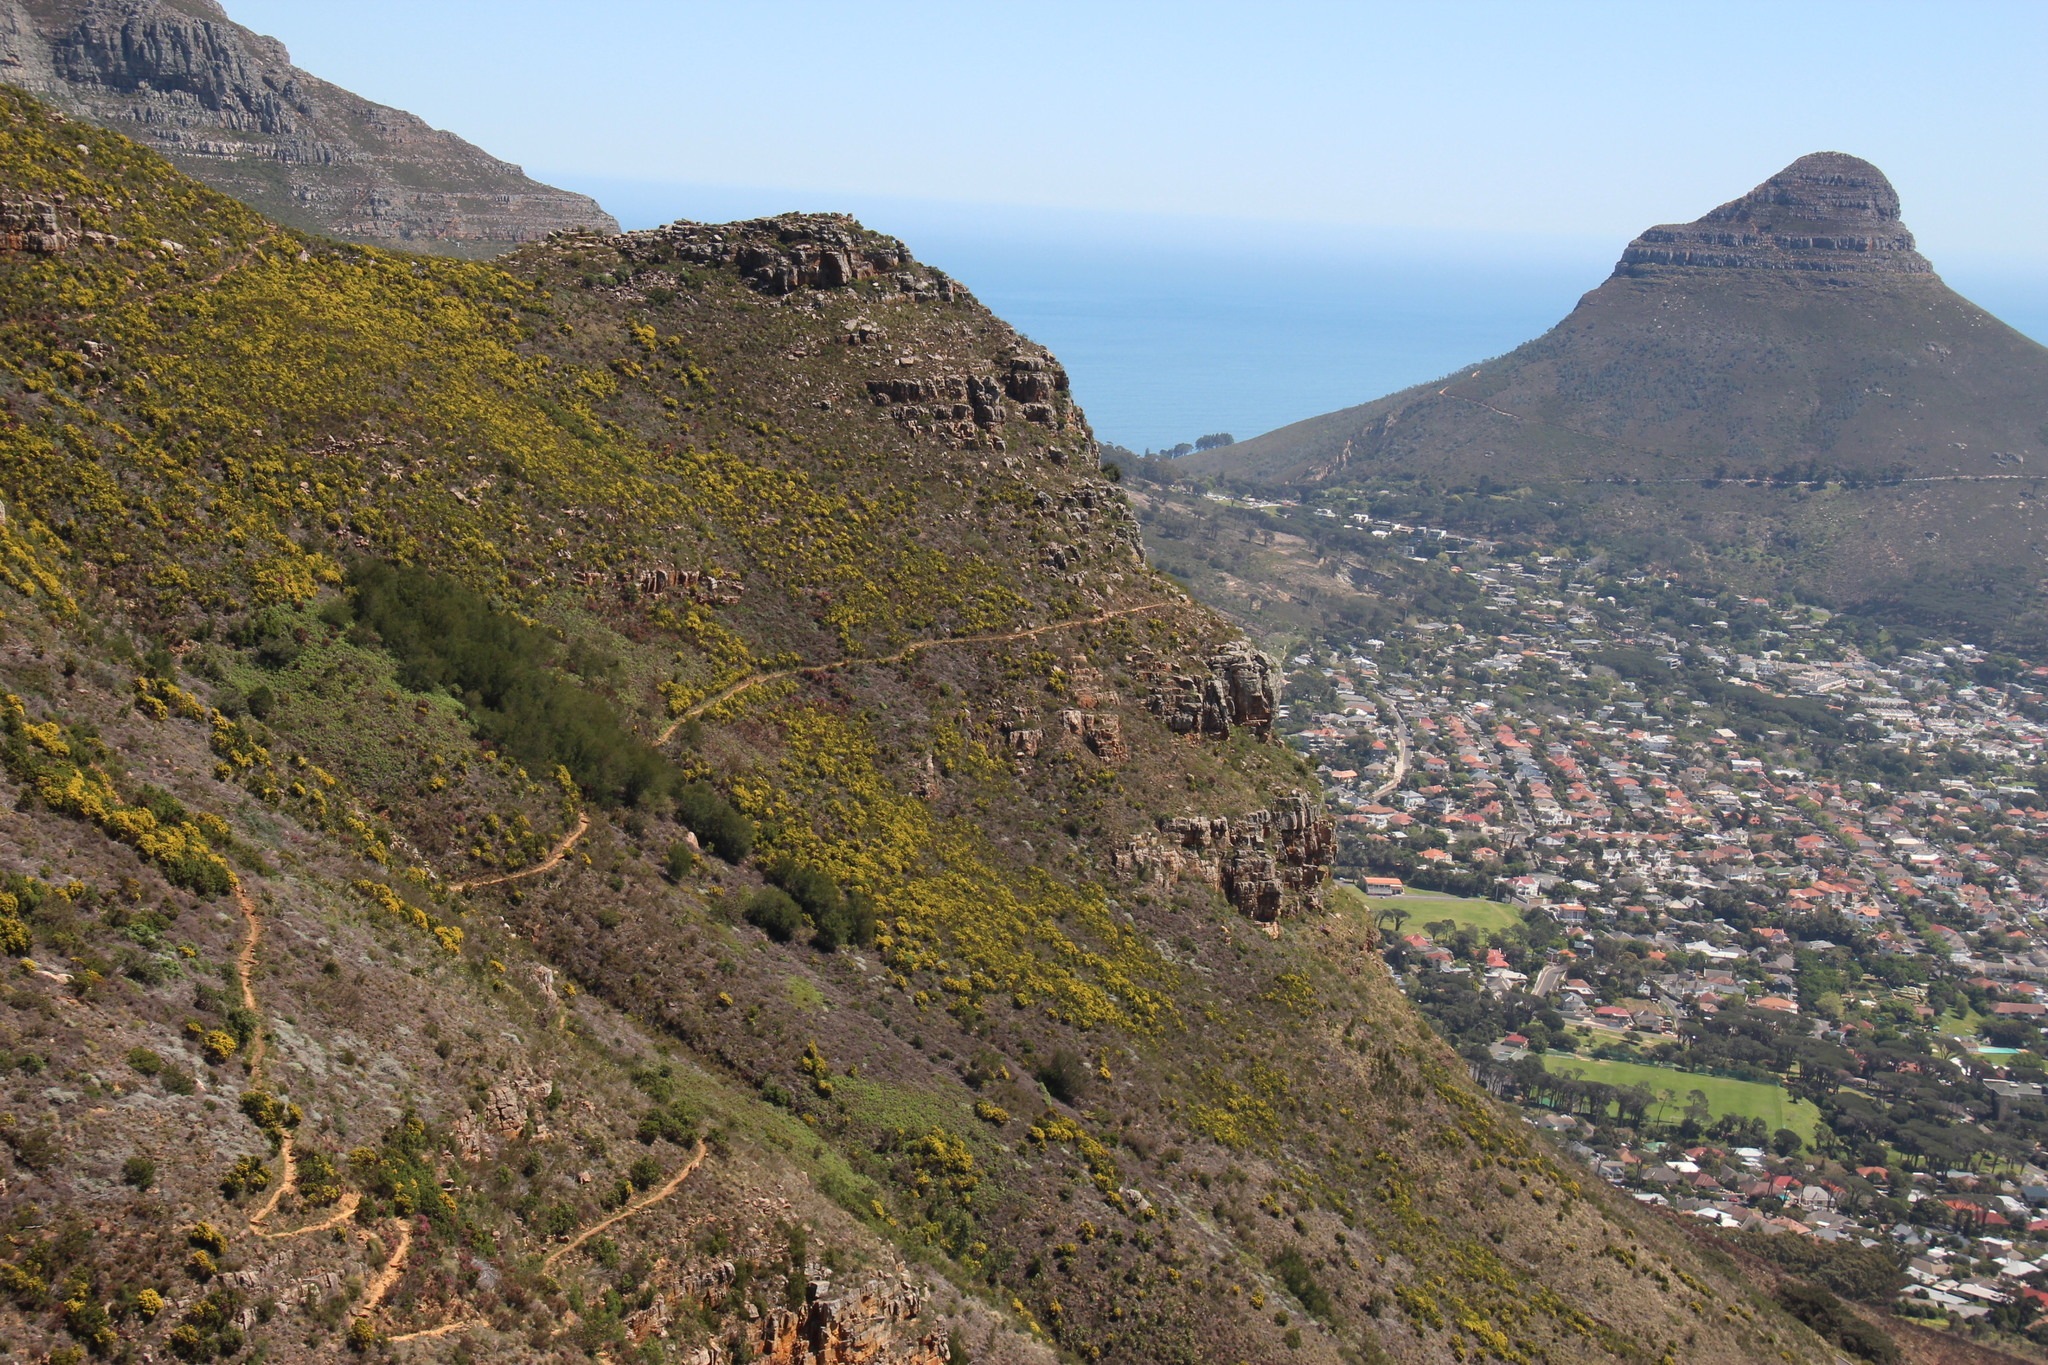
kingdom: Plantae
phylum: Tracheophyta
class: Magnoliopsida
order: Fabales
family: Fabaceae
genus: Acacia
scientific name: Acacia mearnsii
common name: Black wattle
